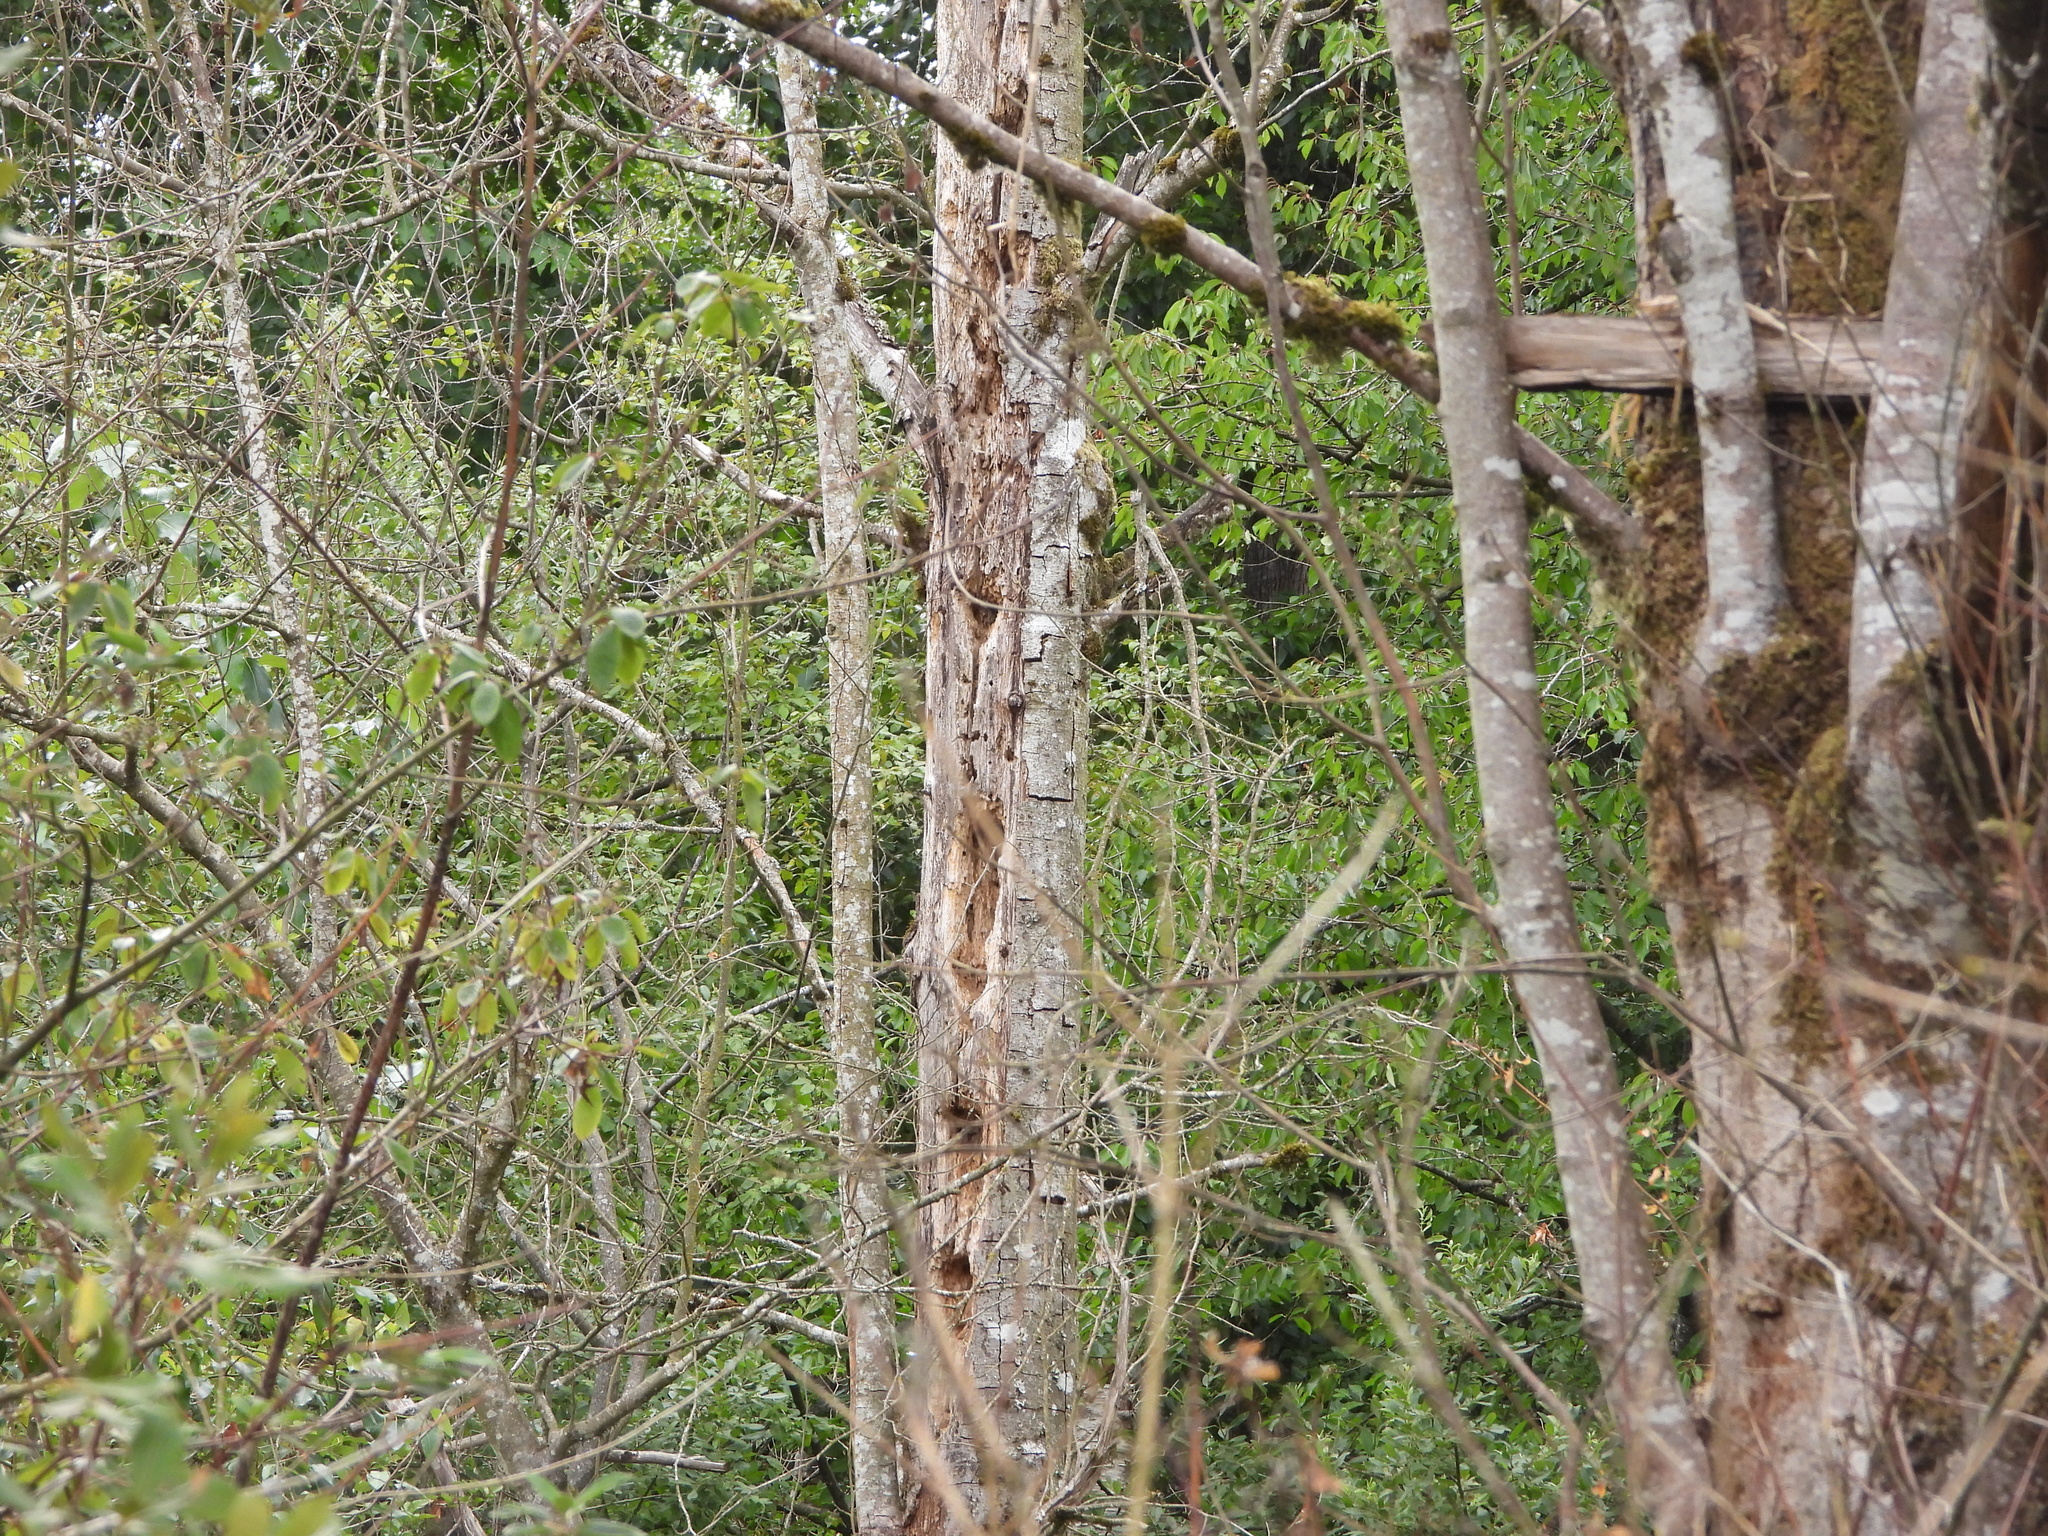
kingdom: Animalia
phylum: Chordata
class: Aves
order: Piciformes
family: Picidae
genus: Dryocopus
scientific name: Dryocopus pileatus
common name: Pileated woodpecker
